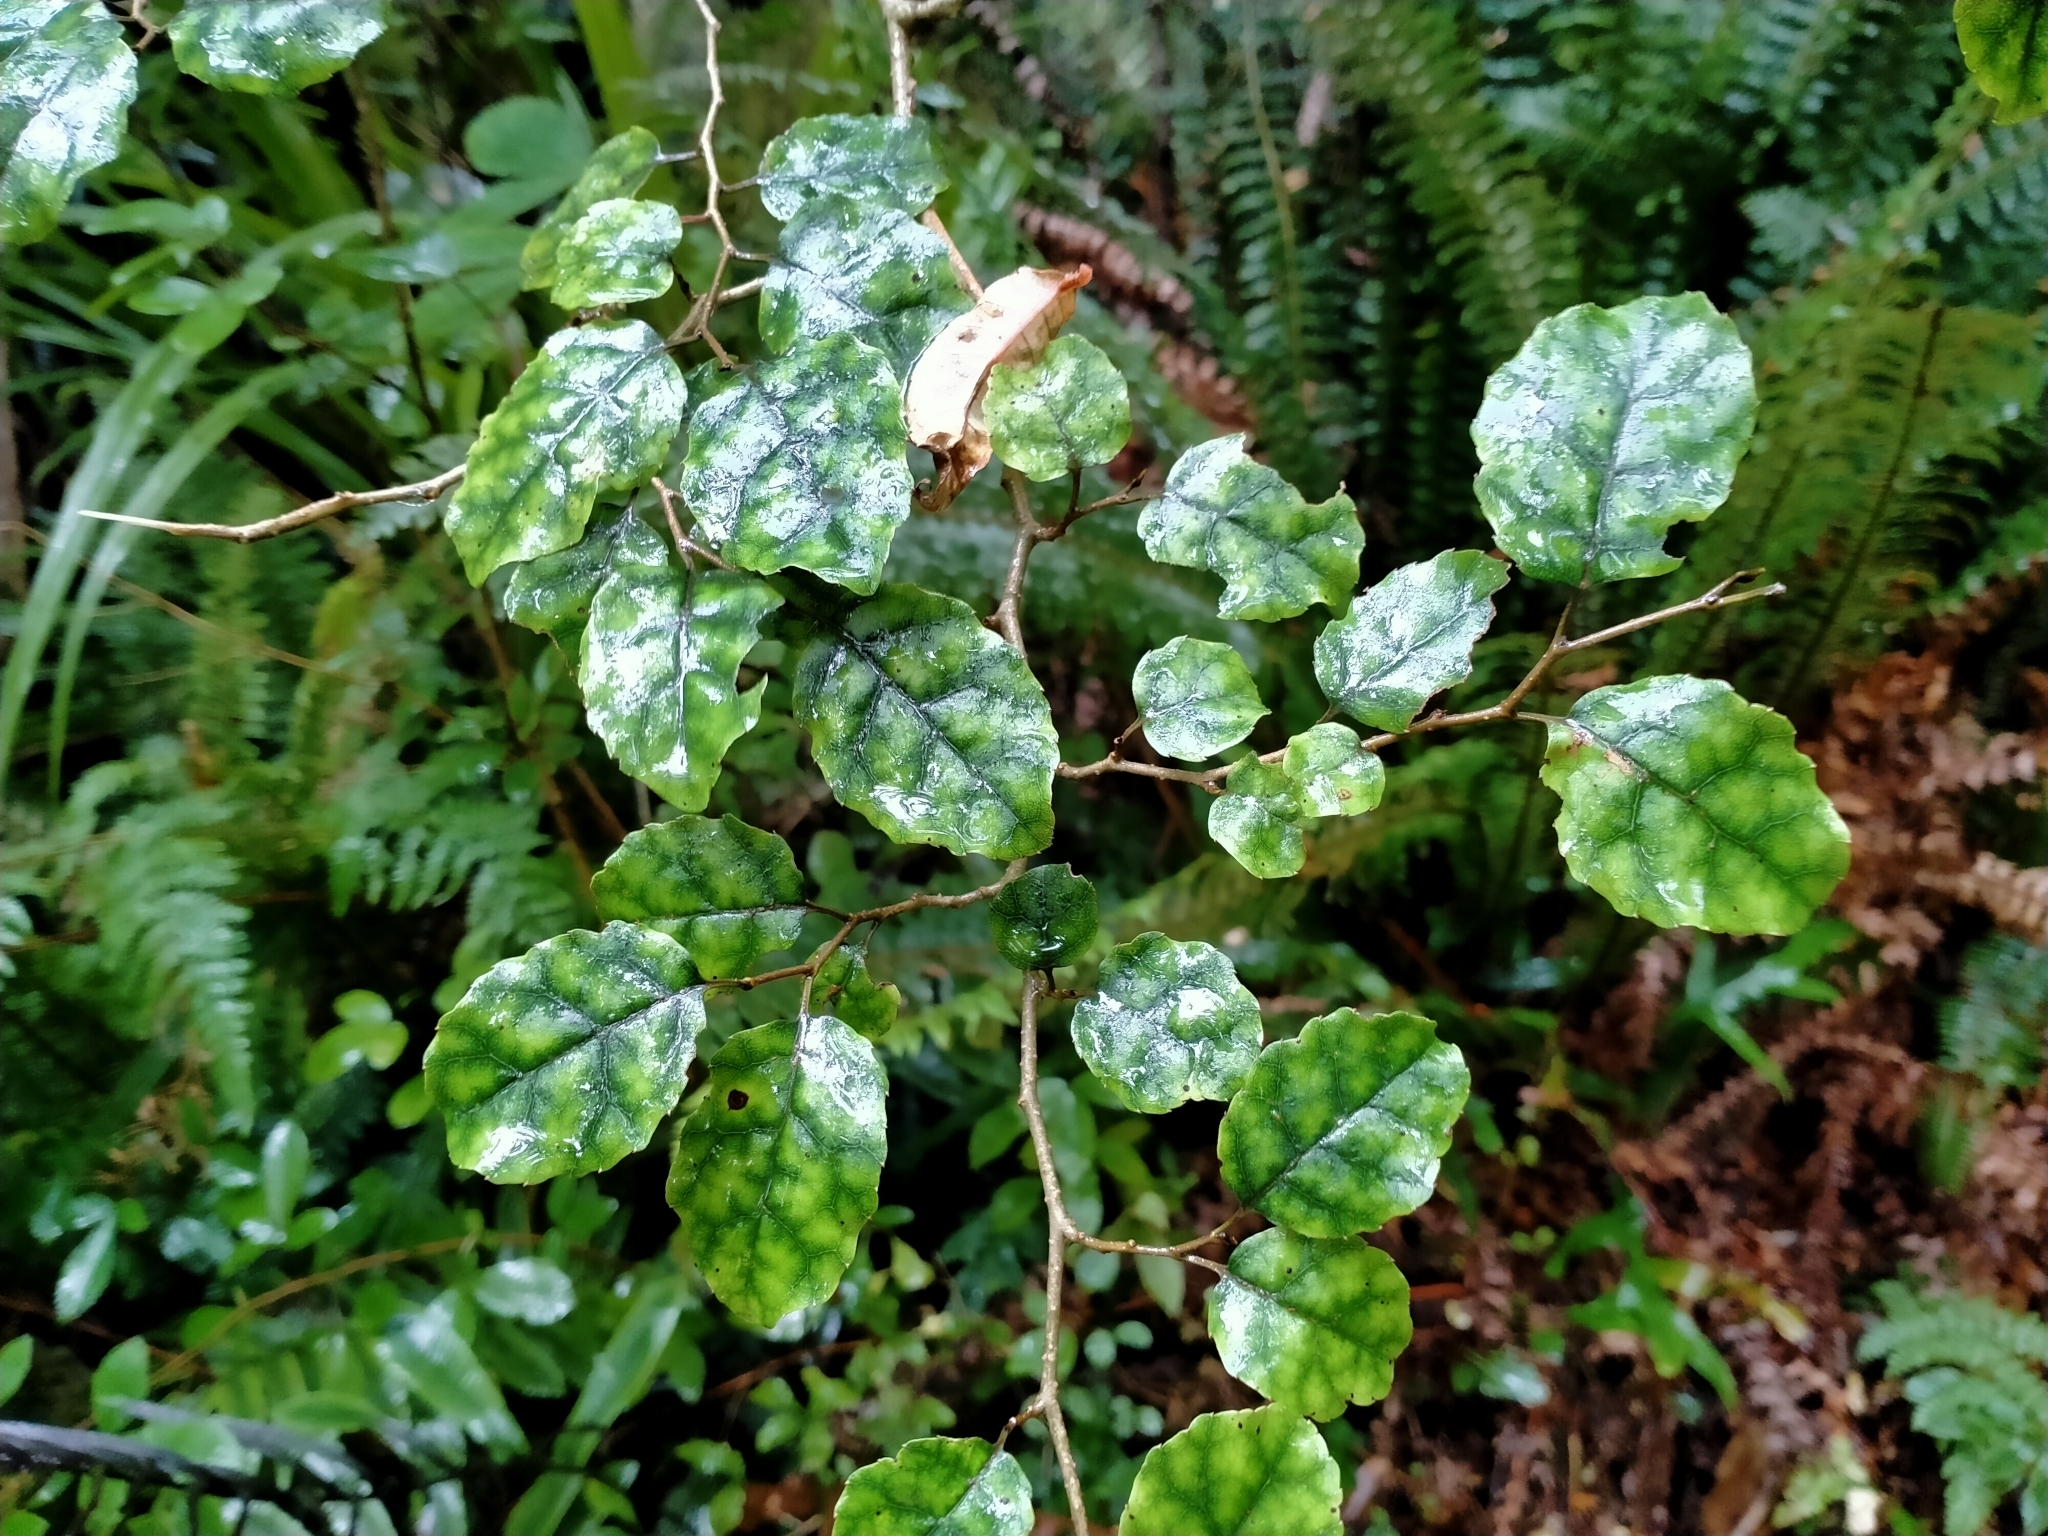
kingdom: Plantae
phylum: Tracheophyta
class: Magnoliopsida
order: Asterales
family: Rousseaceae
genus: Carpodetus
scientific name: Carpodetus serratus
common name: White mapau
